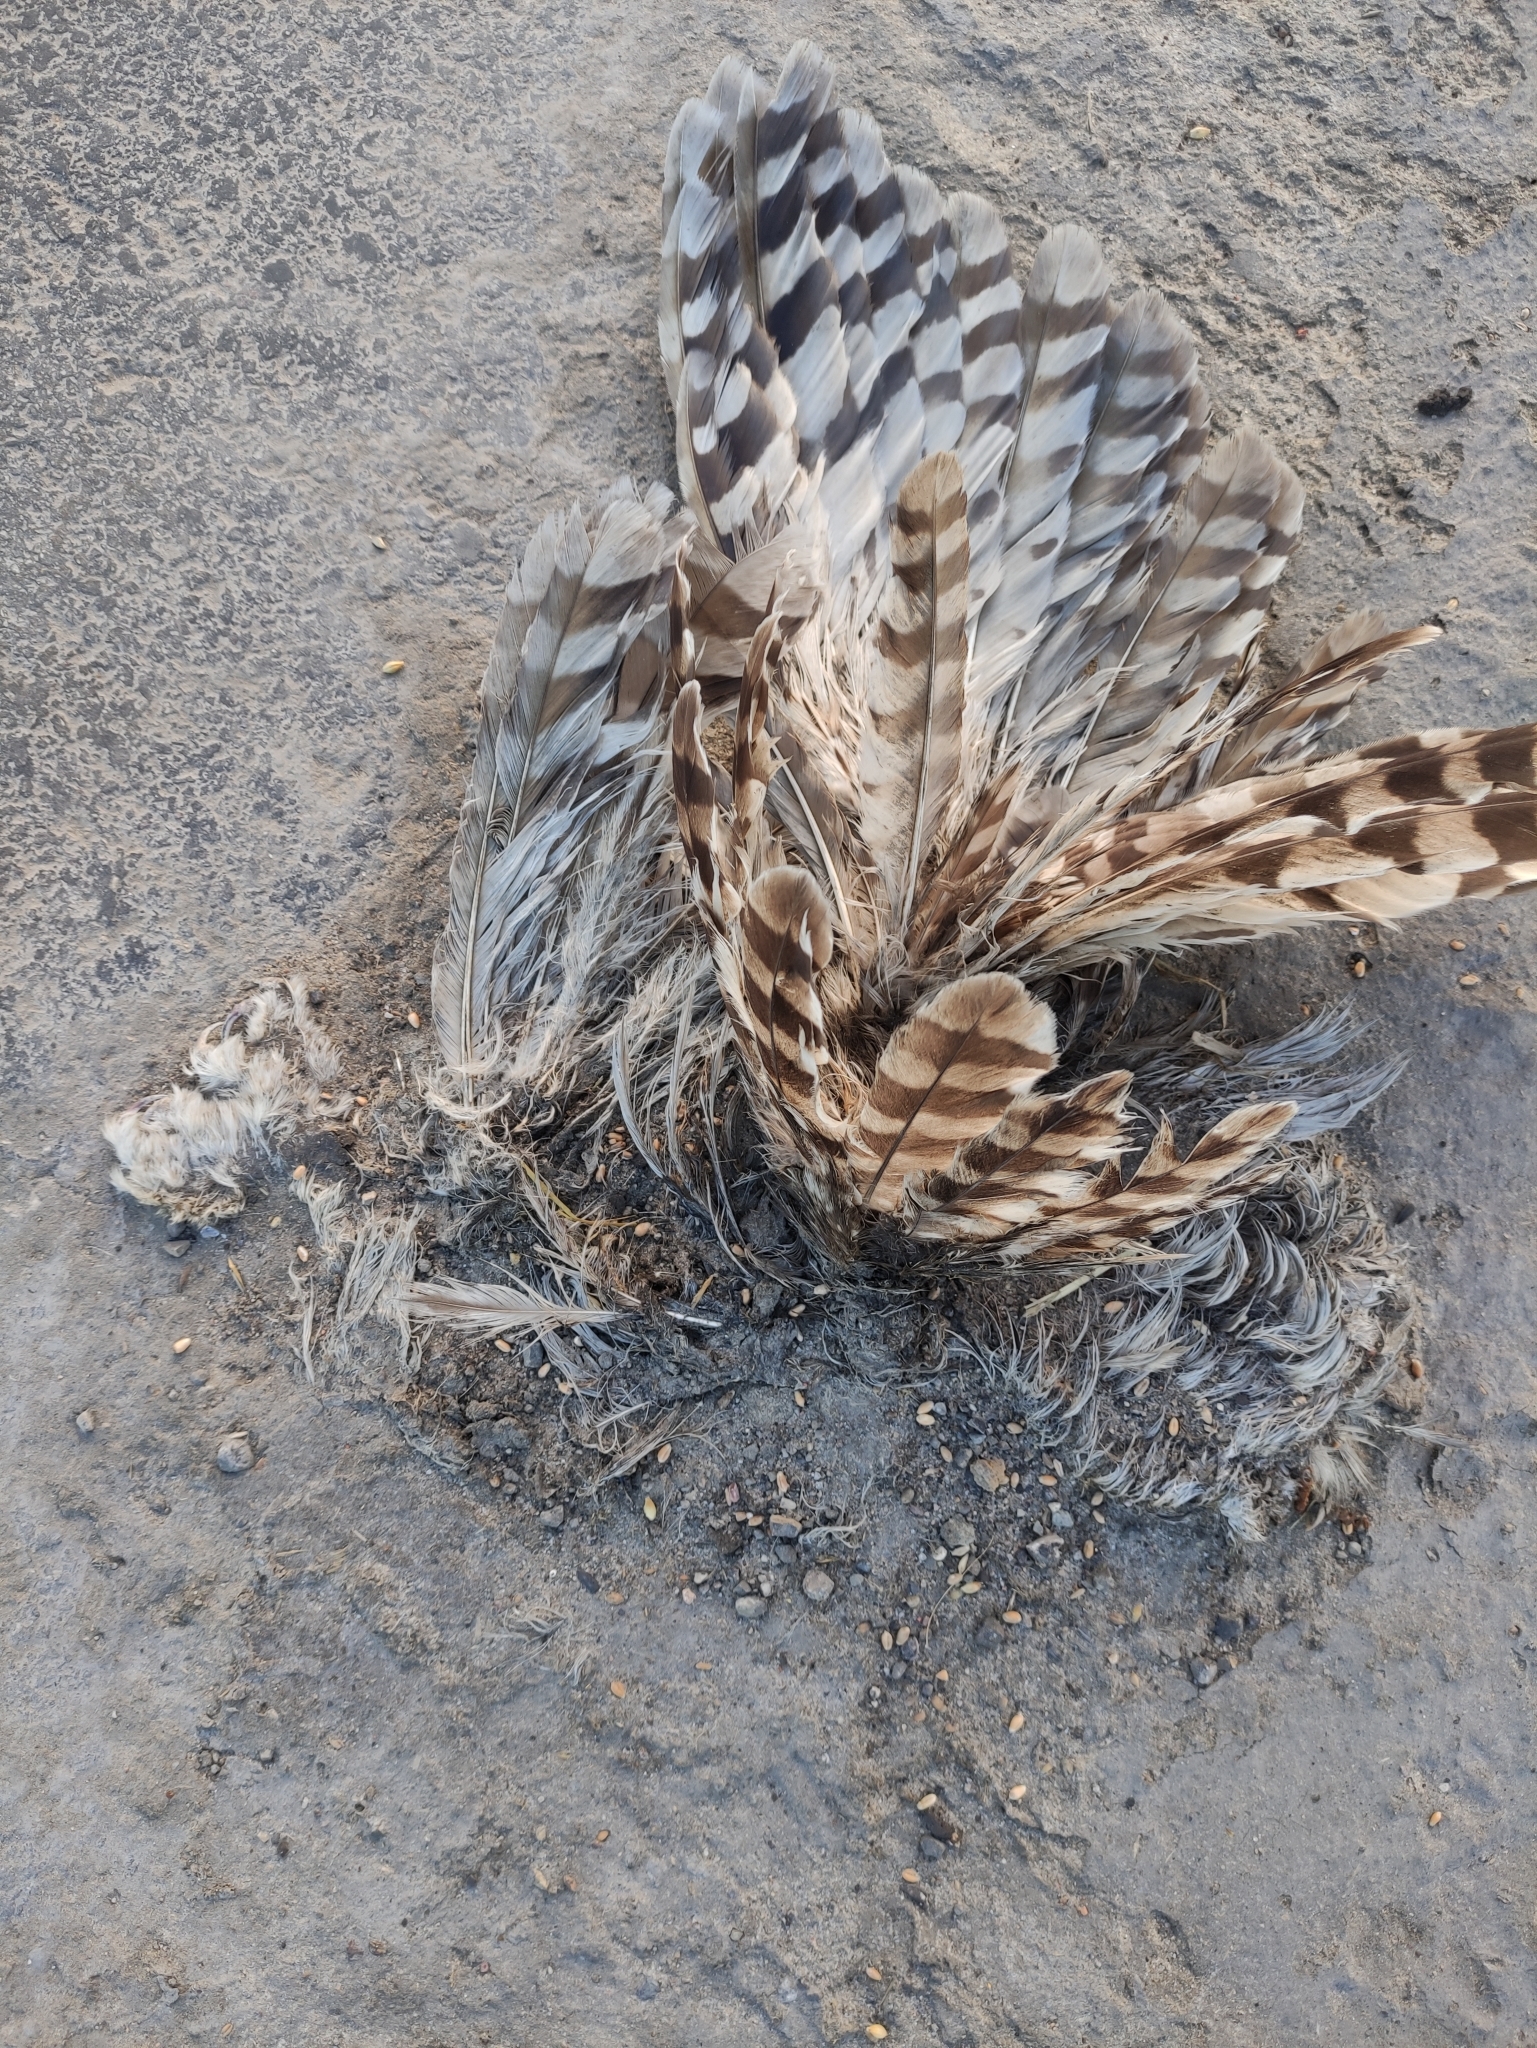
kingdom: Animalia
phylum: Chordata
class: Aves
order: Strigiformes
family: Strigidae
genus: Strix
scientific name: Strix uralensis
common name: Ural owl
